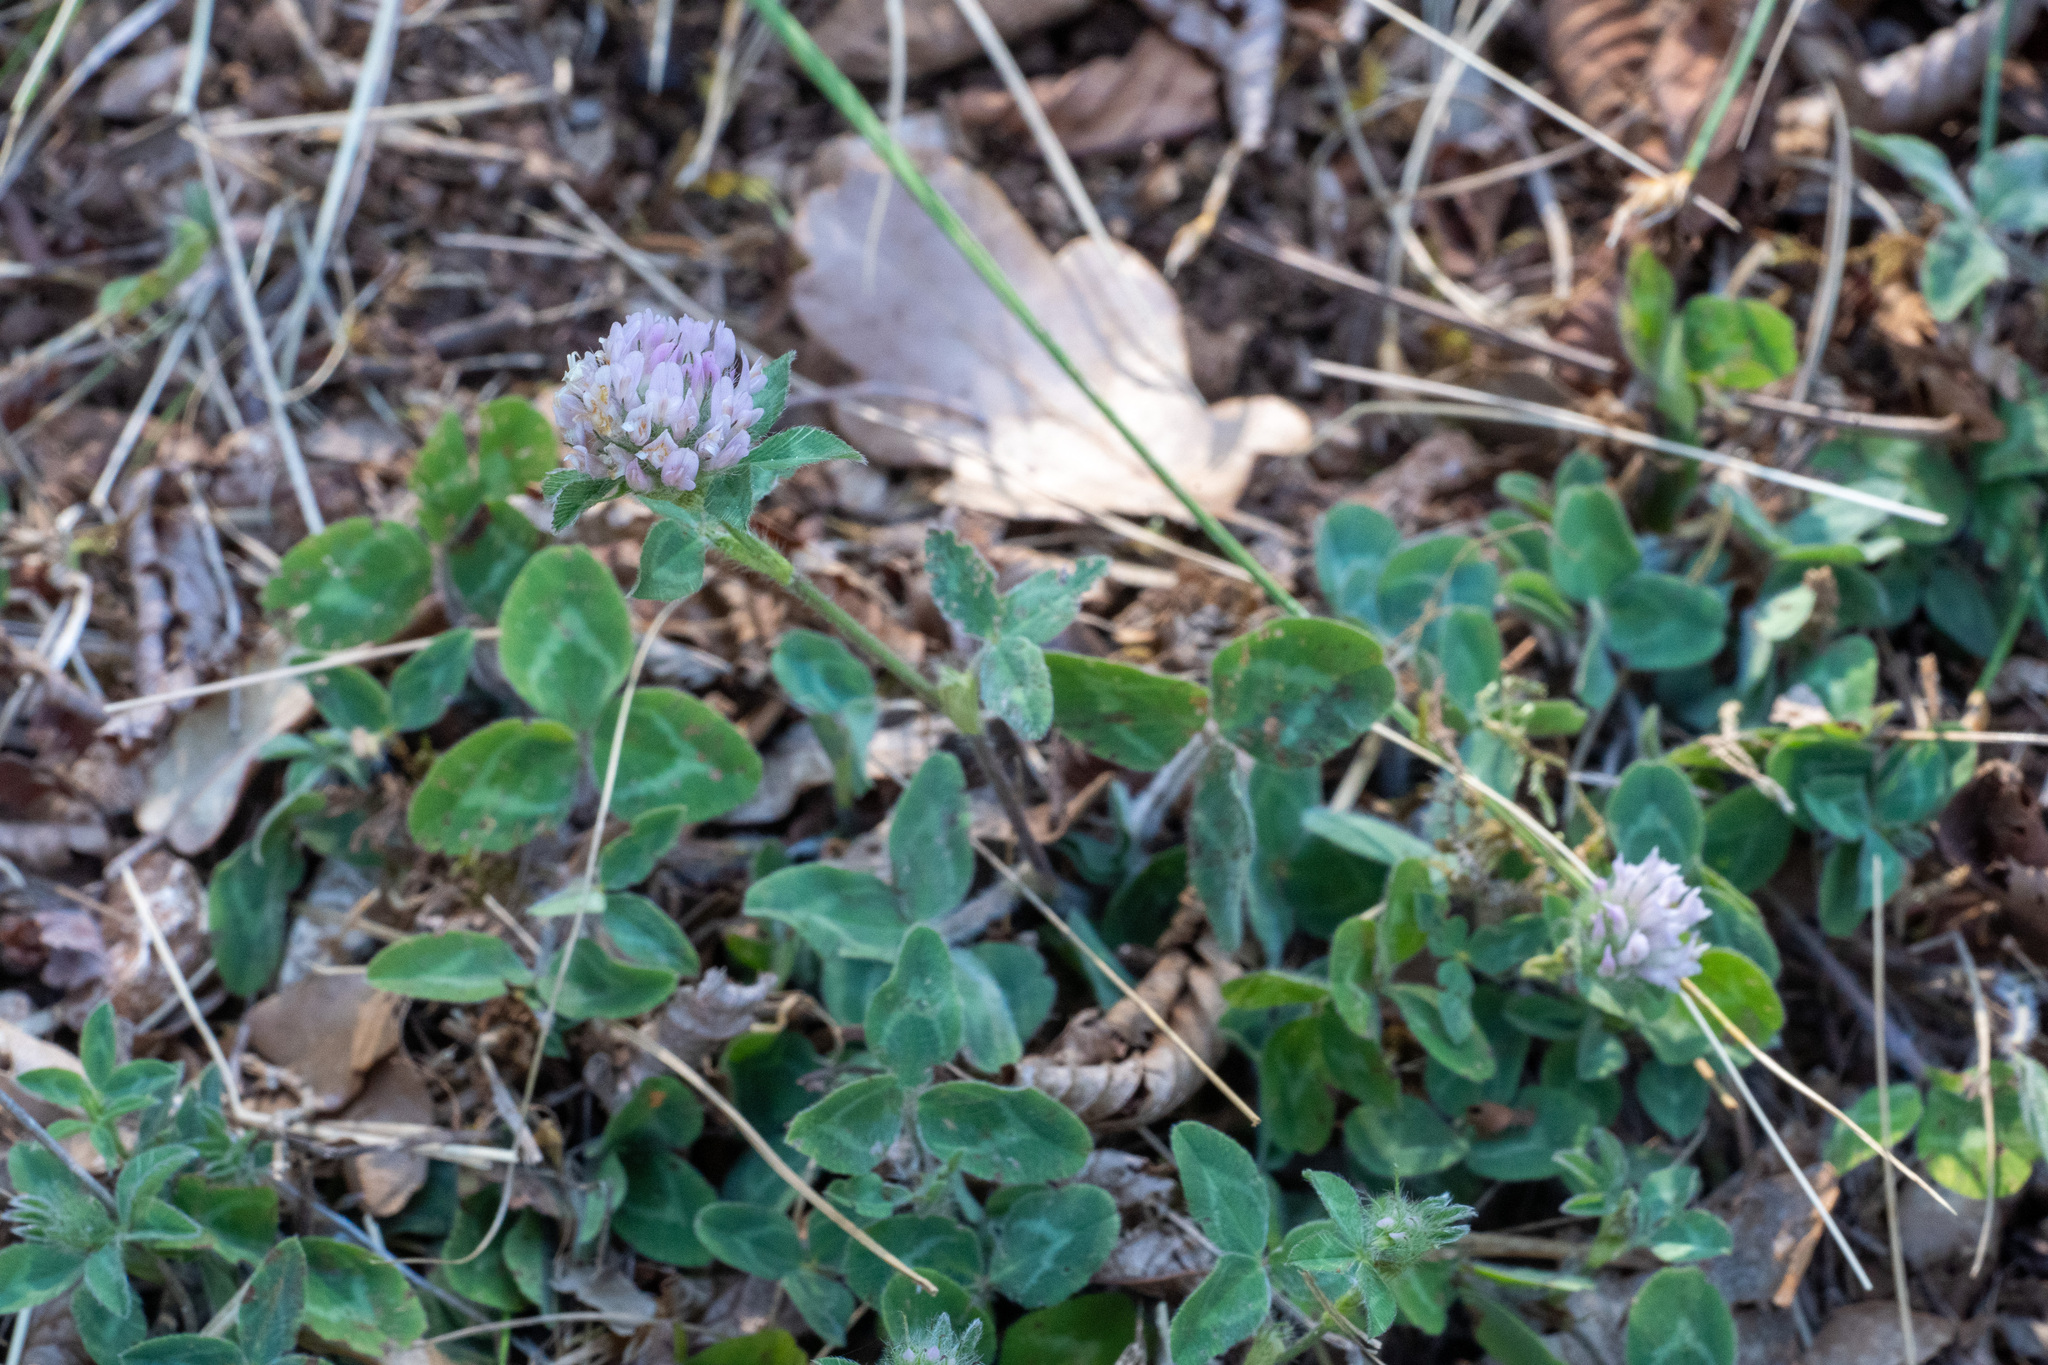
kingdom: Plantae
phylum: Tracheophyta
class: Magnoliopsida
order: Fabales
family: Fabaceae
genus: Trifolium
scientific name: Trifolium pratense
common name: Red clover
